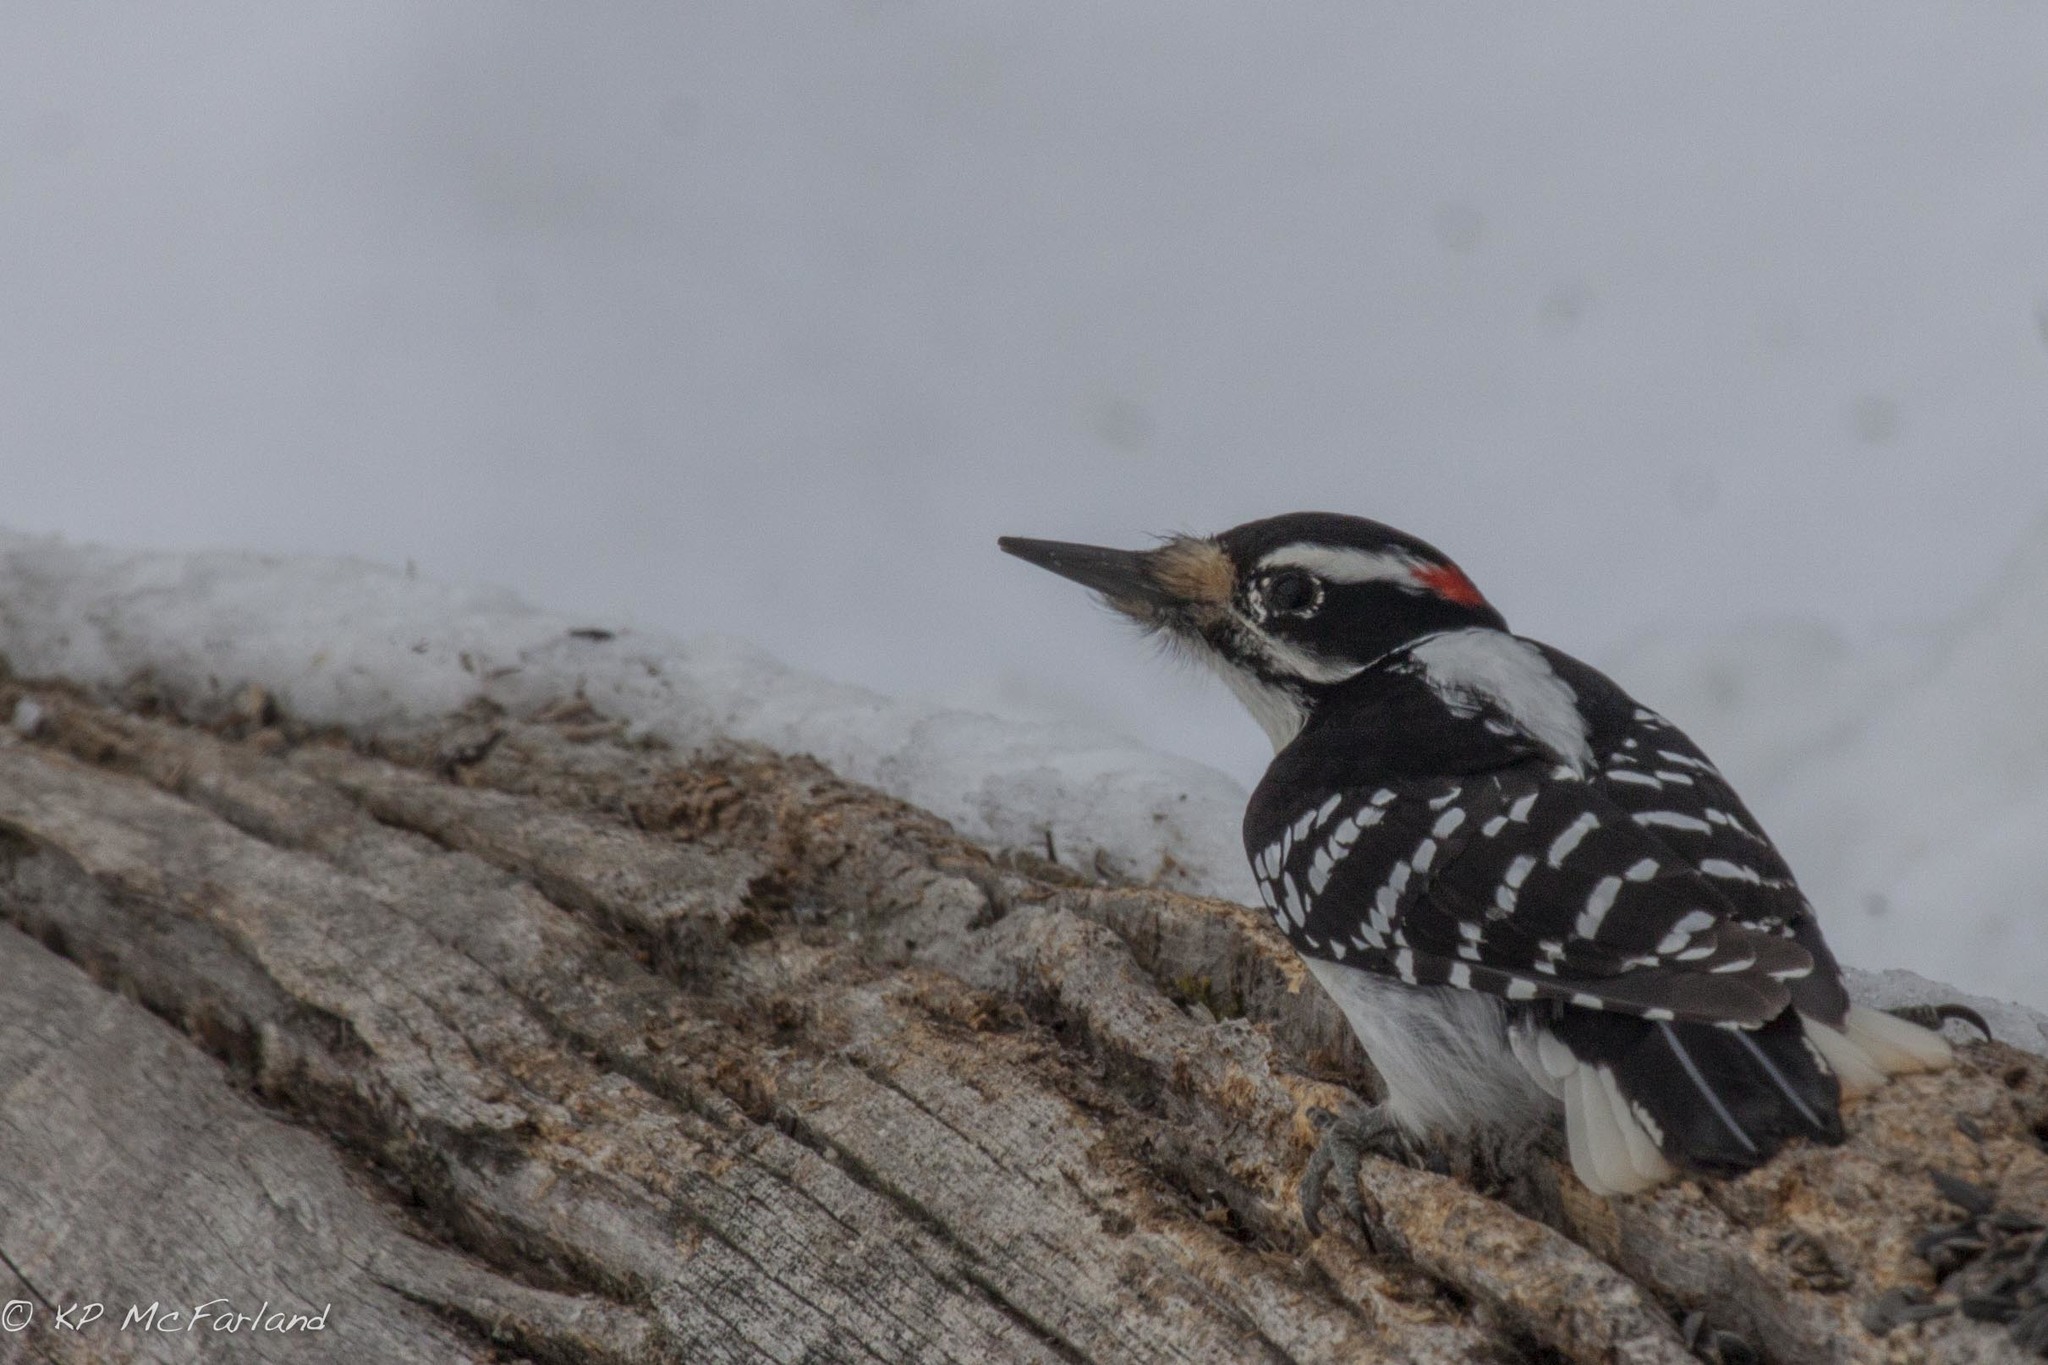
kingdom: Animalia
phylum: Chordata
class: Aves
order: Piciformes
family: Picidae
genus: Leuconotopicus
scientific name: Leuconotopicus villosus
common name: Hairy woodpecker
